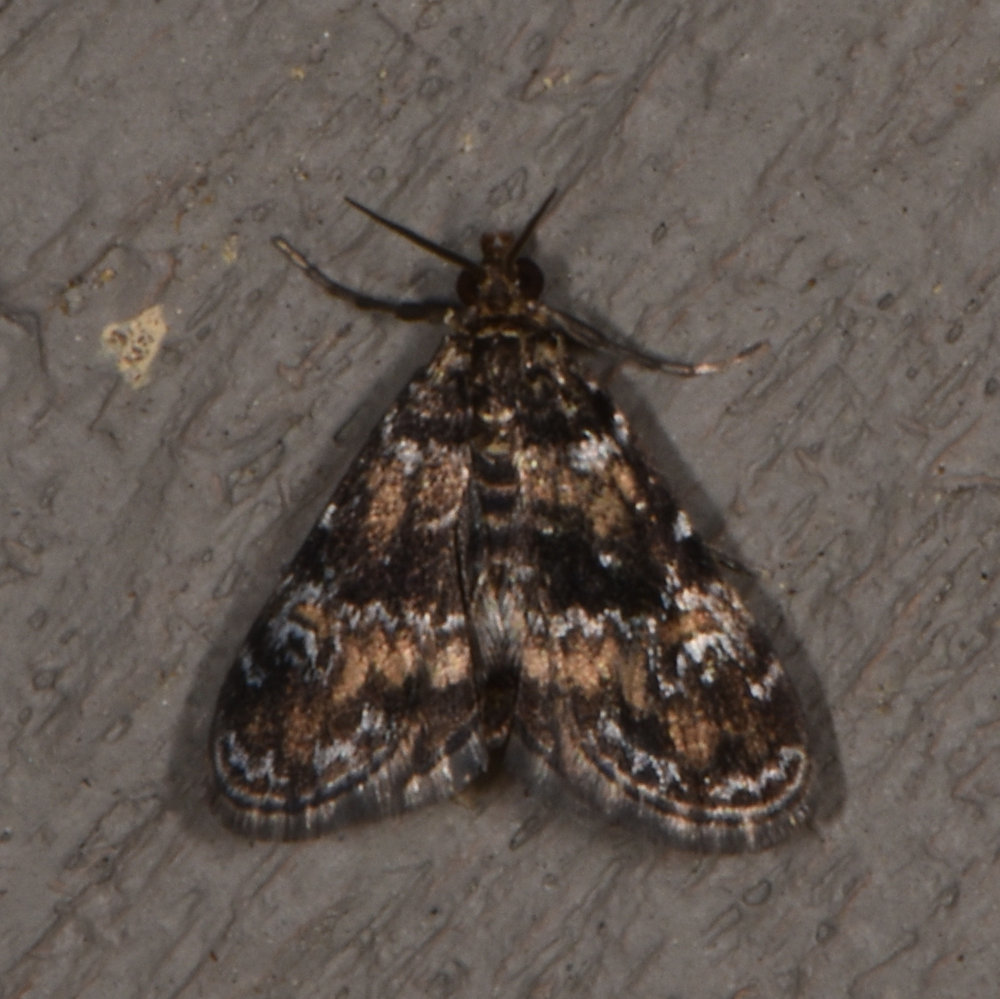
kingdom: Animalia
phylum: Arthropoda
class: Insecta
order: Lepidoptera
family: Crambidae
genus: Elophila
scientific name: Elophila obliteralis
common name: Waterlily leafcutter moth
